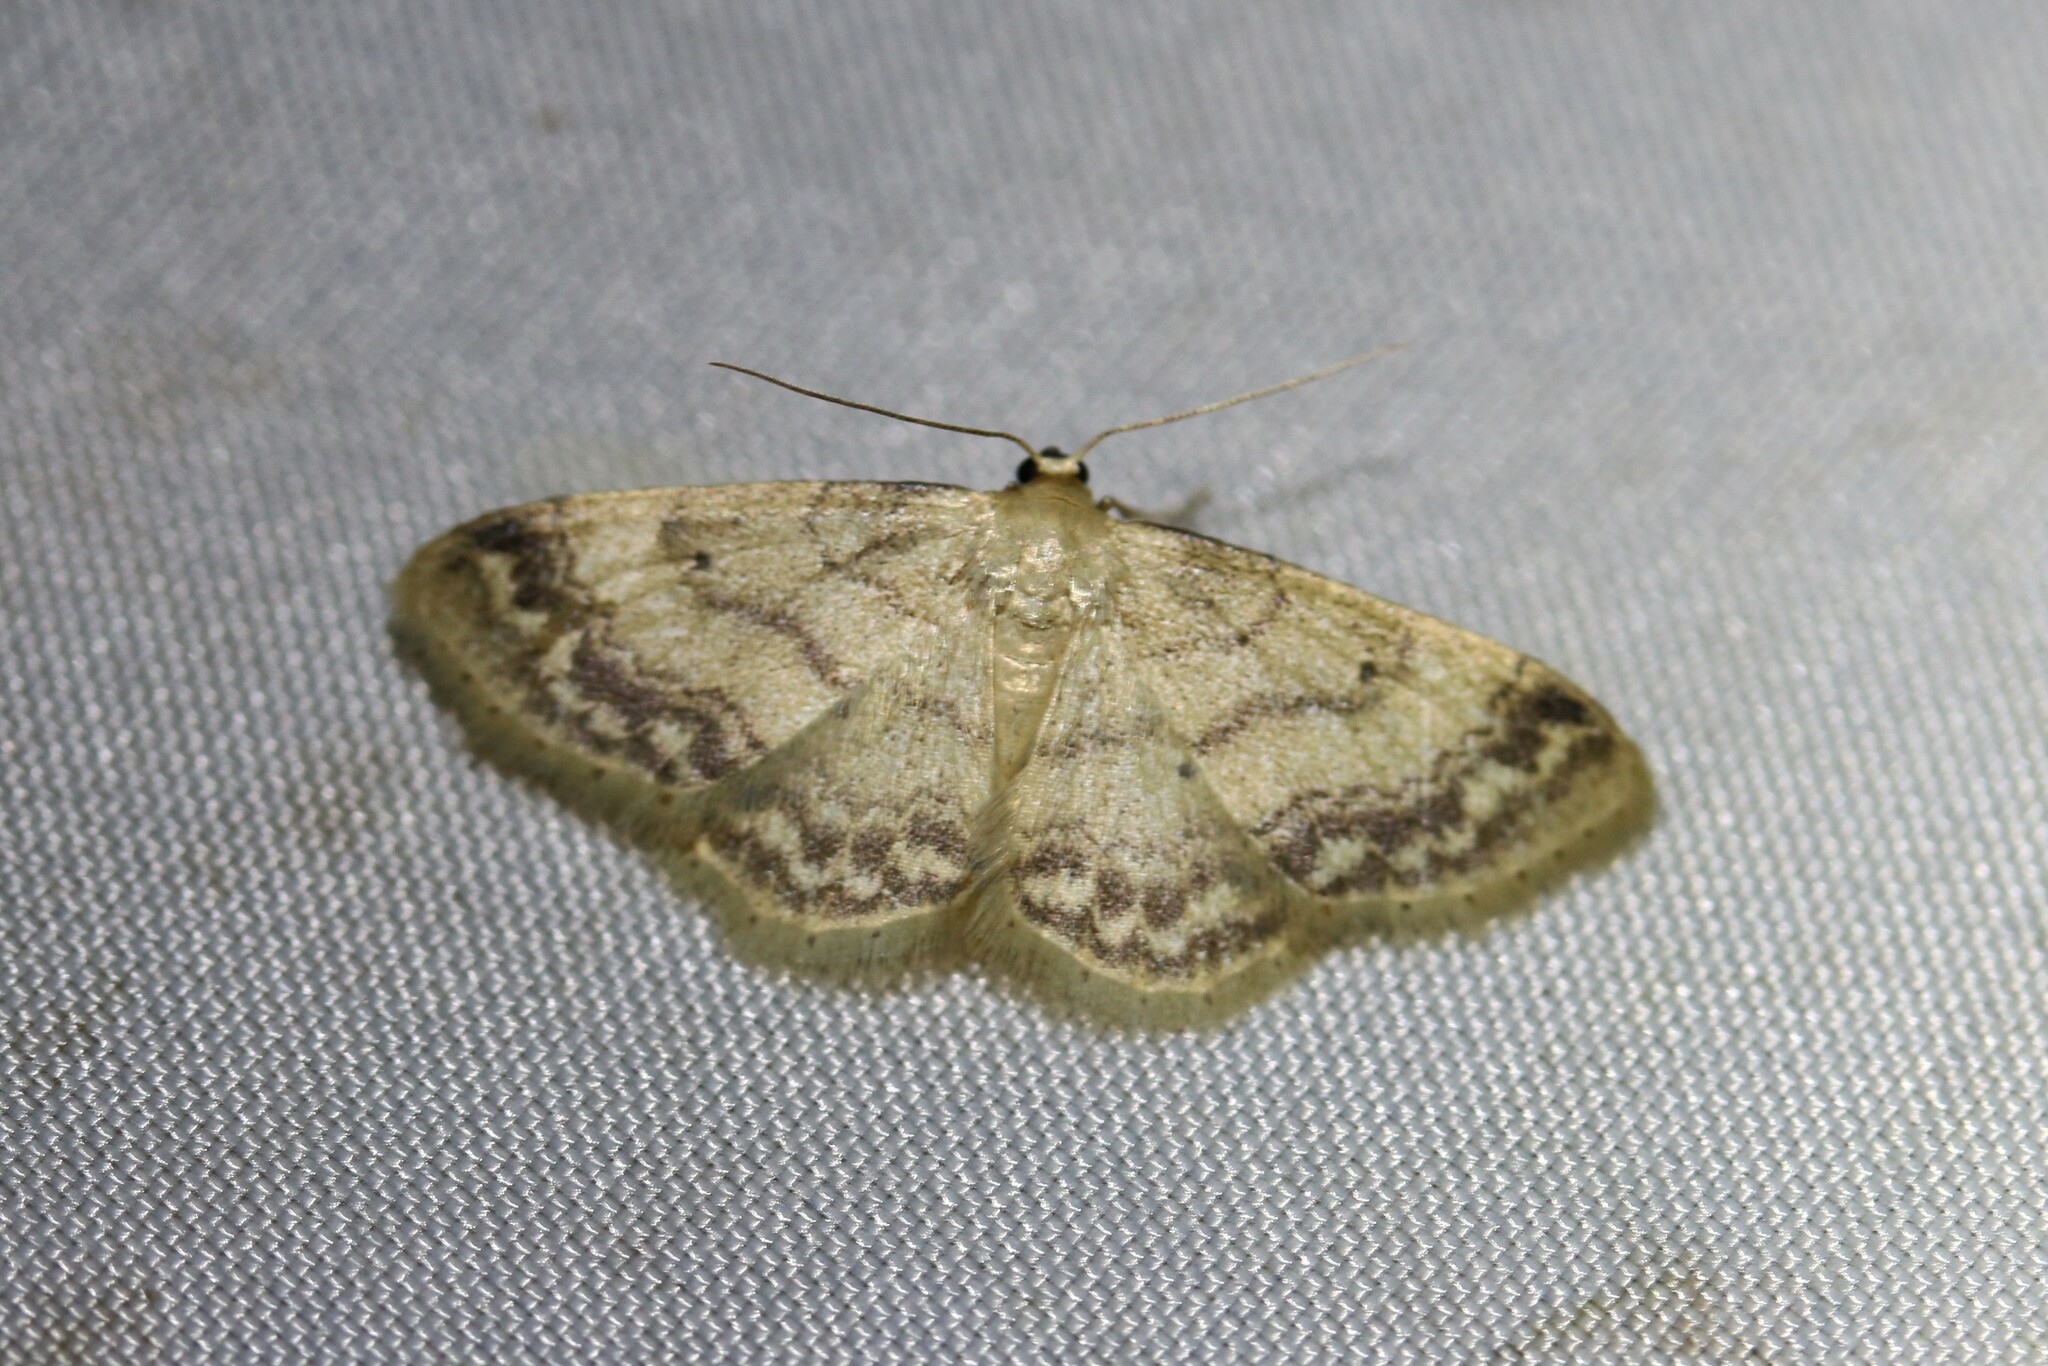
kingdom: Animalia
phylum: Arthropoda
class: Insecta
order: Lepidoptera
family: Geometridae
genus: Idaea
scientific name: Idaea biselata
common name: Small fan-footed wave
